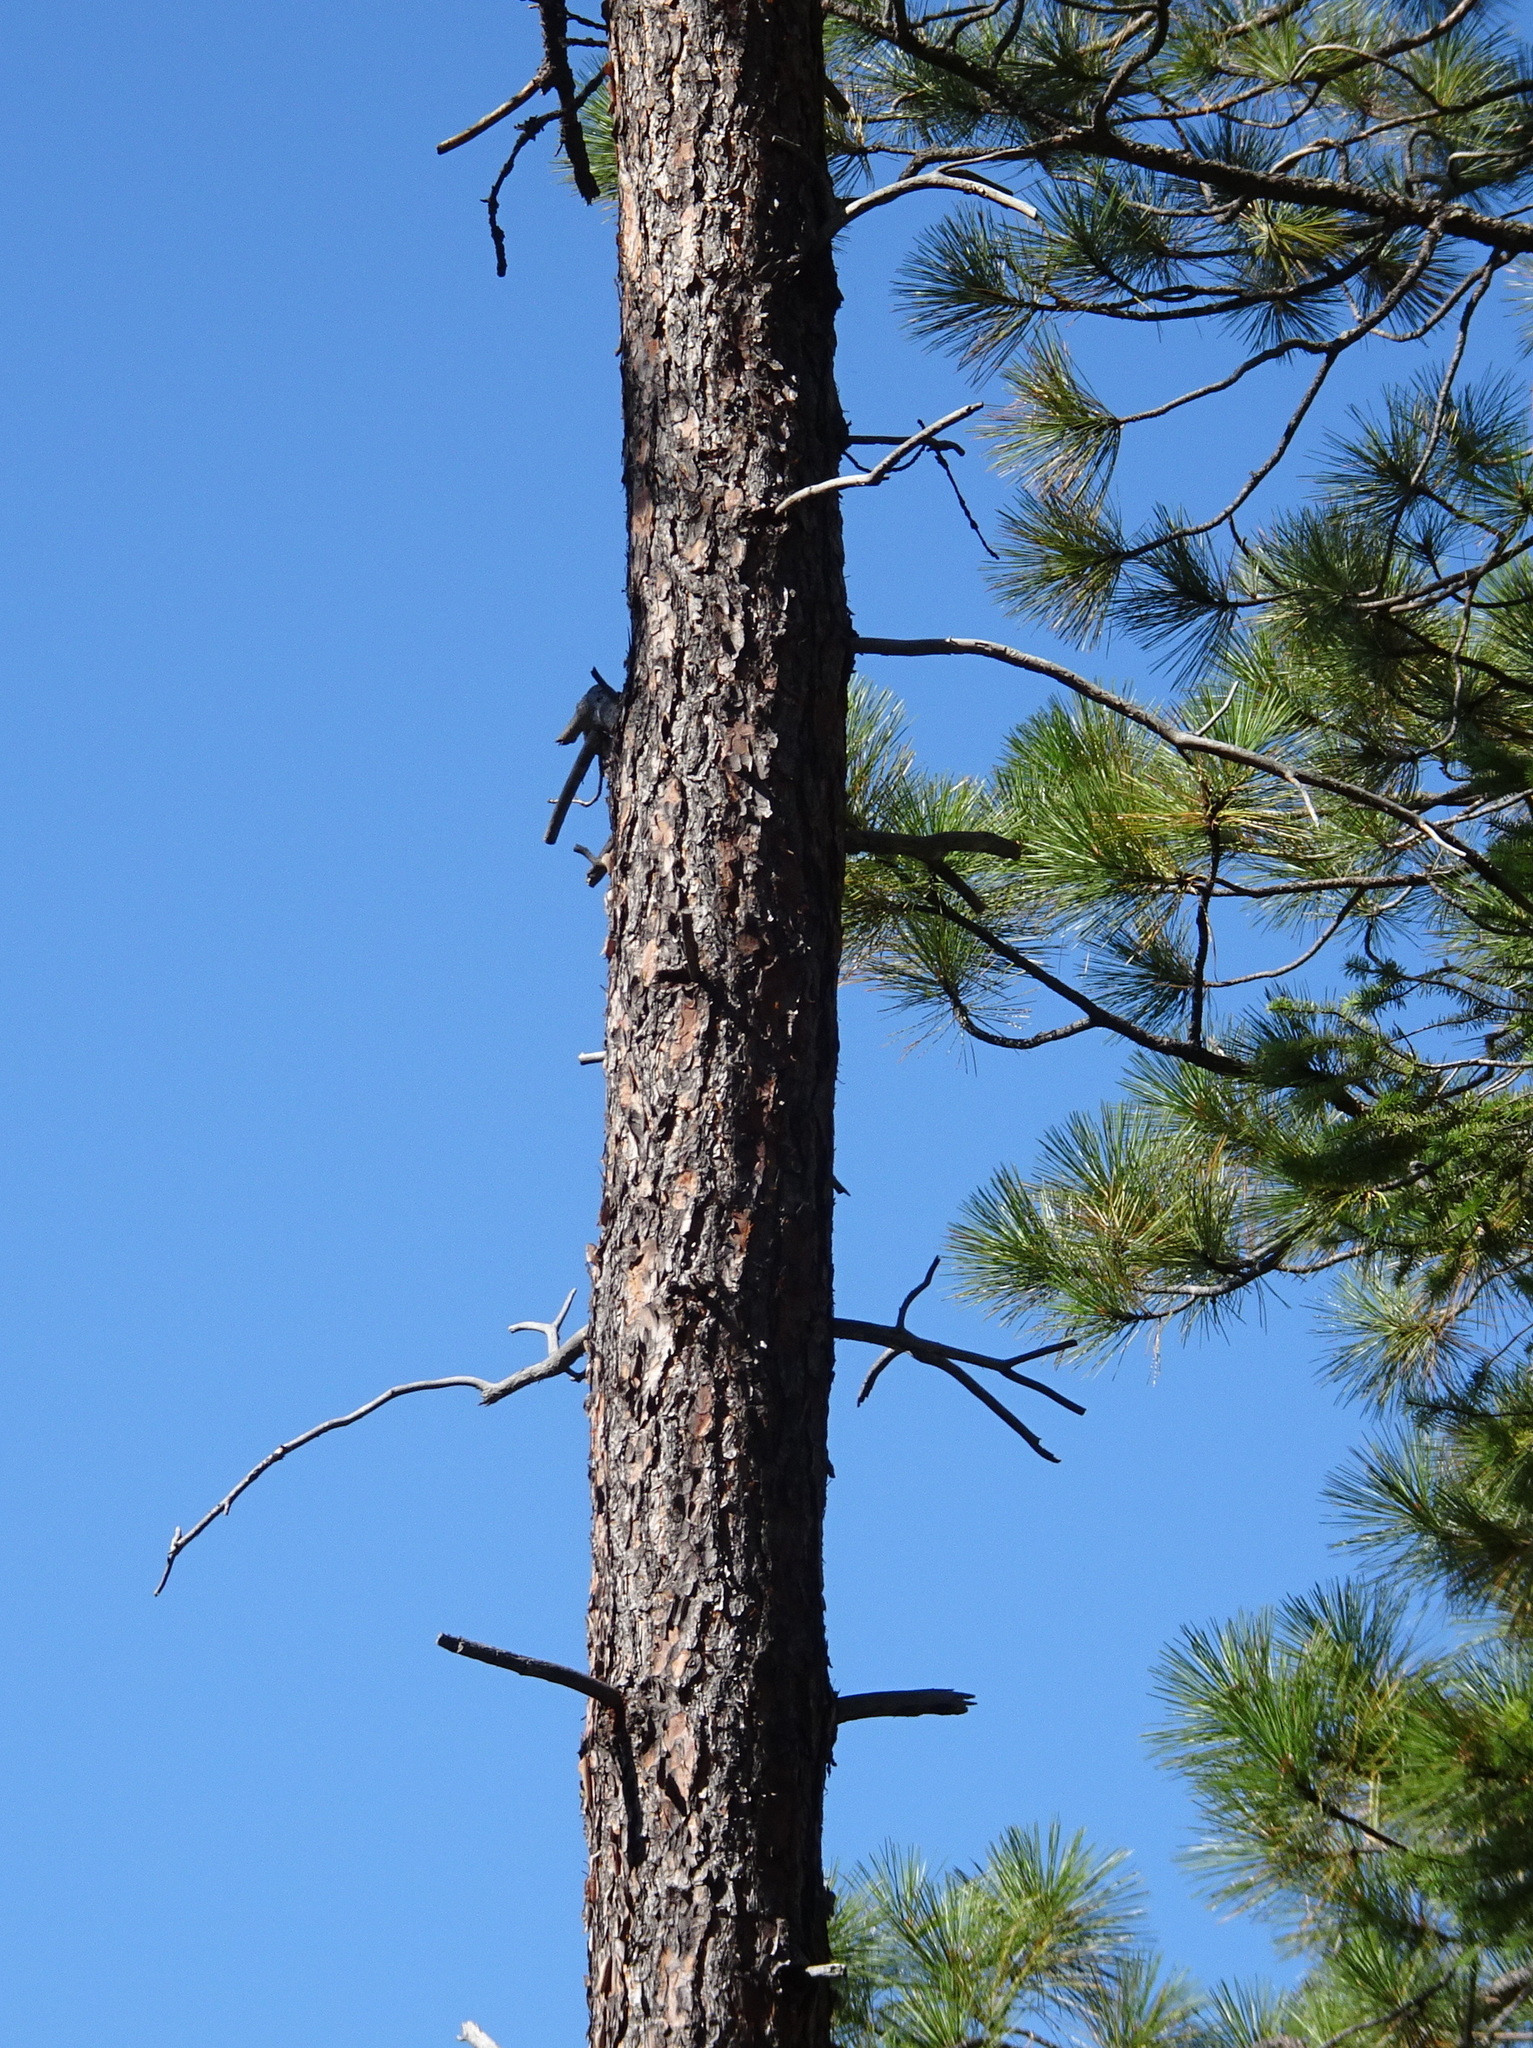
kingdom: Plantae
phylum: Tracheophyta
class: Pinopsida
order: Pinales
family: Pinaceae
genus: Pinus
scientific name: Pinus ponderosa
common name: Western yellow-pine
